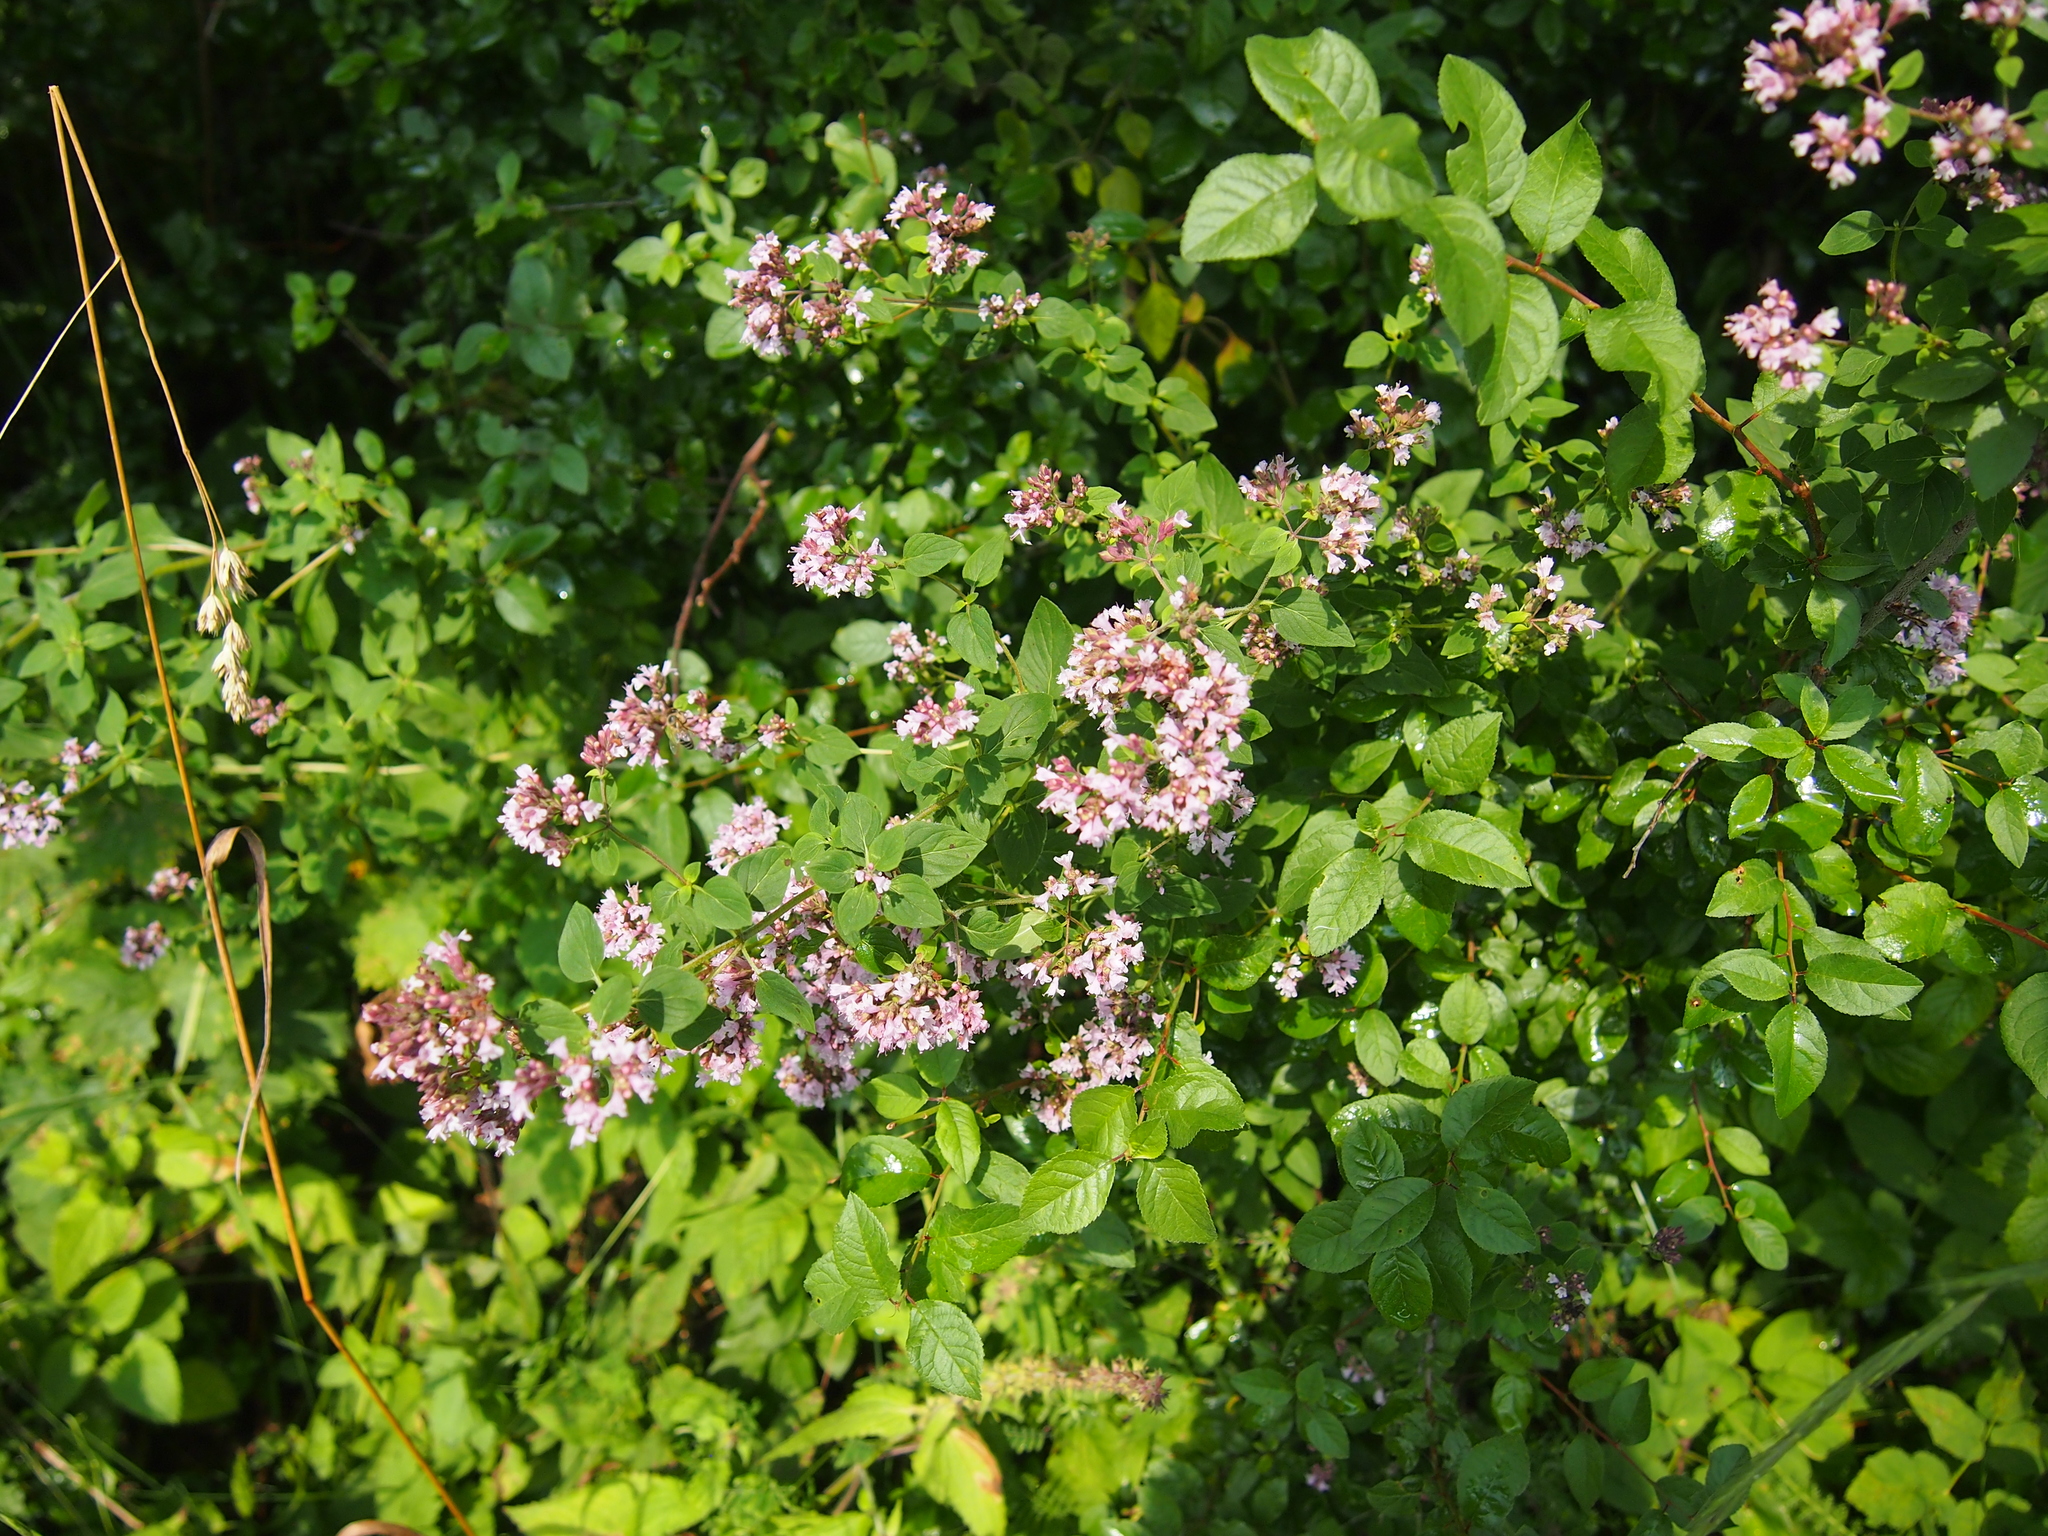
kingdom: Plantae
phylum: Tracheophyta
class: Magnoliopsida
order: Lamiales
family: Lamiaceae
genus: Origanum
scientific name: Origanum vulgare
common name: Wild marjoram
